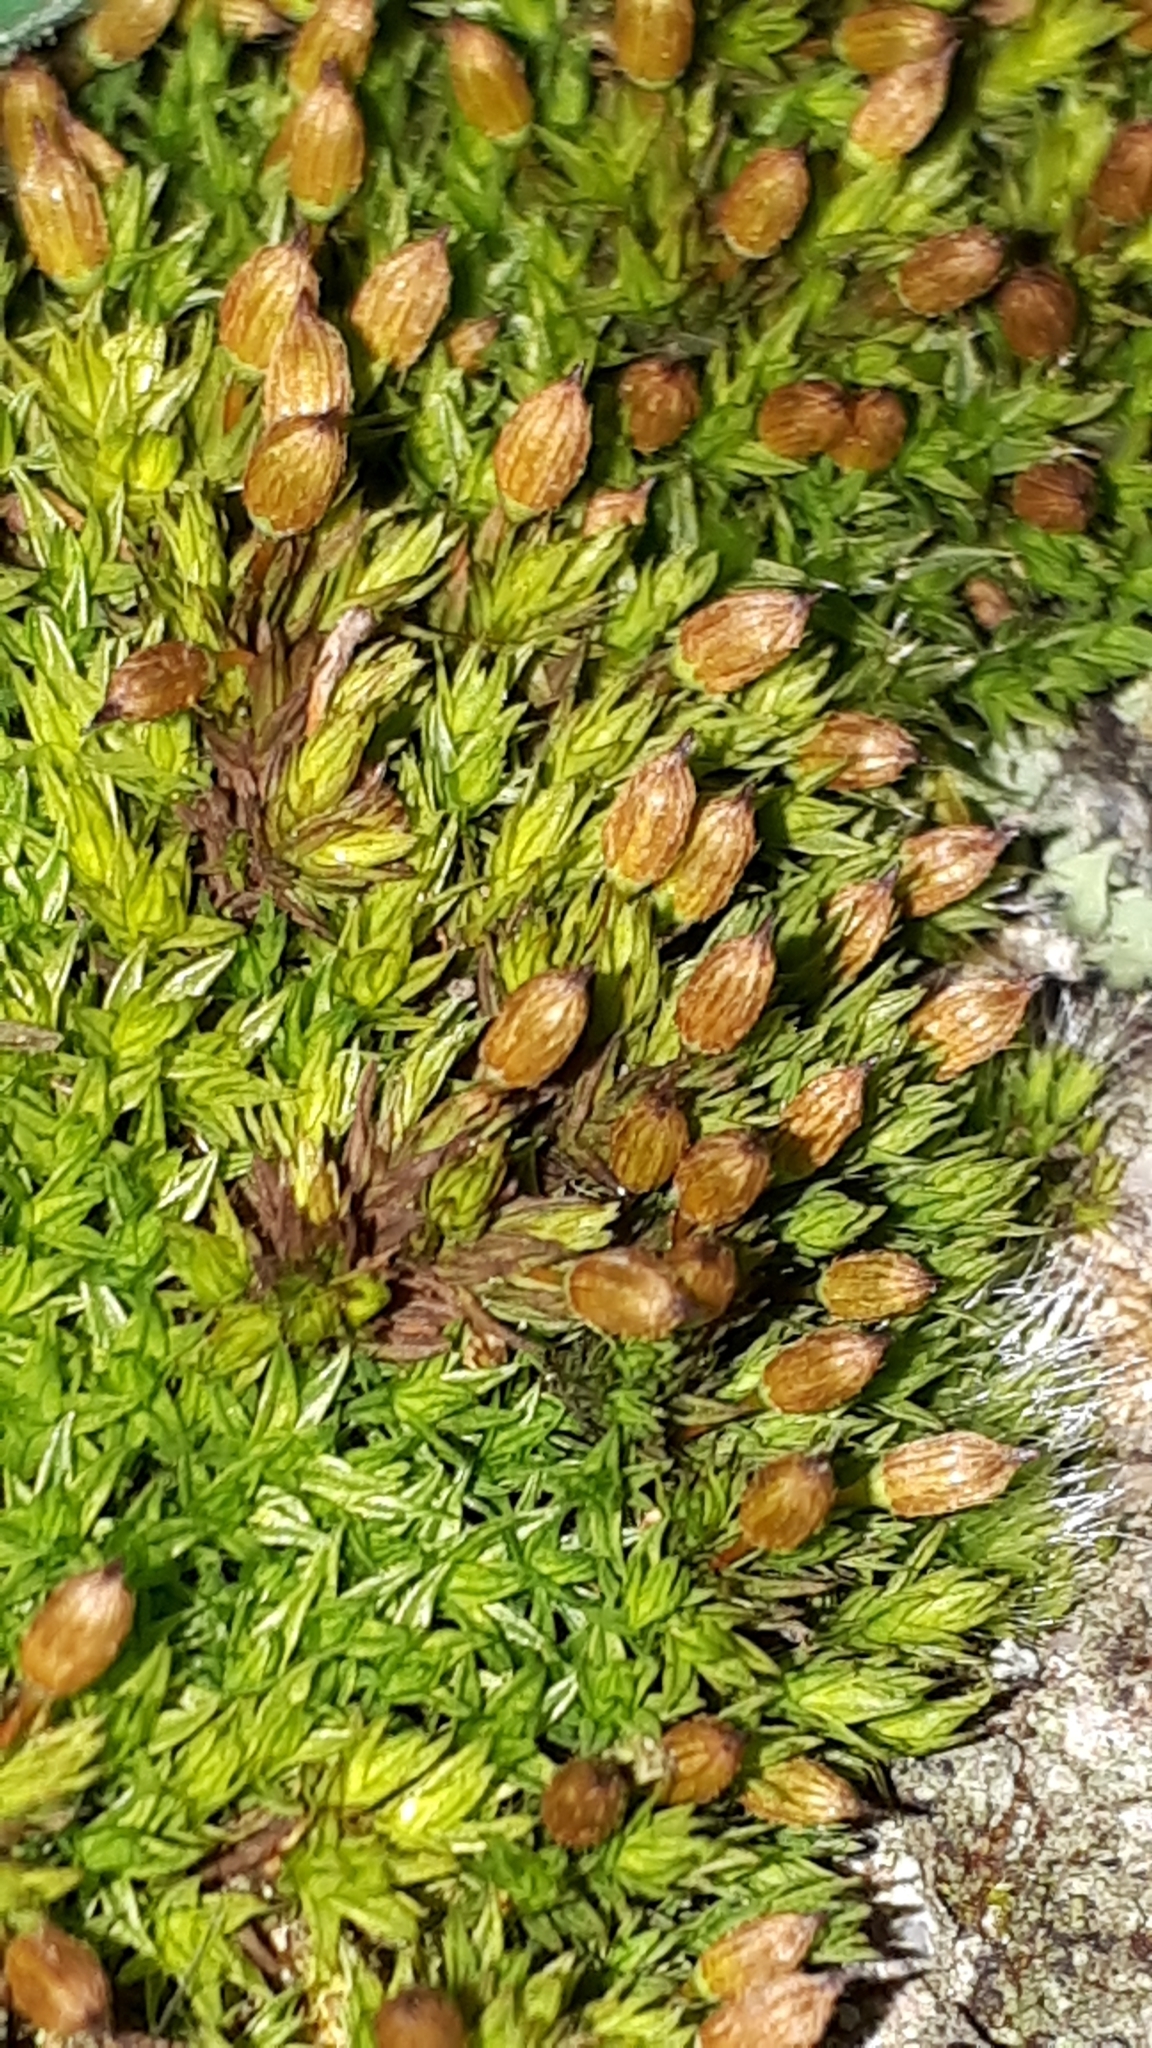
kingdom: Plantae
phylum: Bryophyta
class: Bryopsida
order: Orthotrichales
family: Orthotrichaceae
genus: Orthotrichum
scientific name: Orthotrichum anomalum
